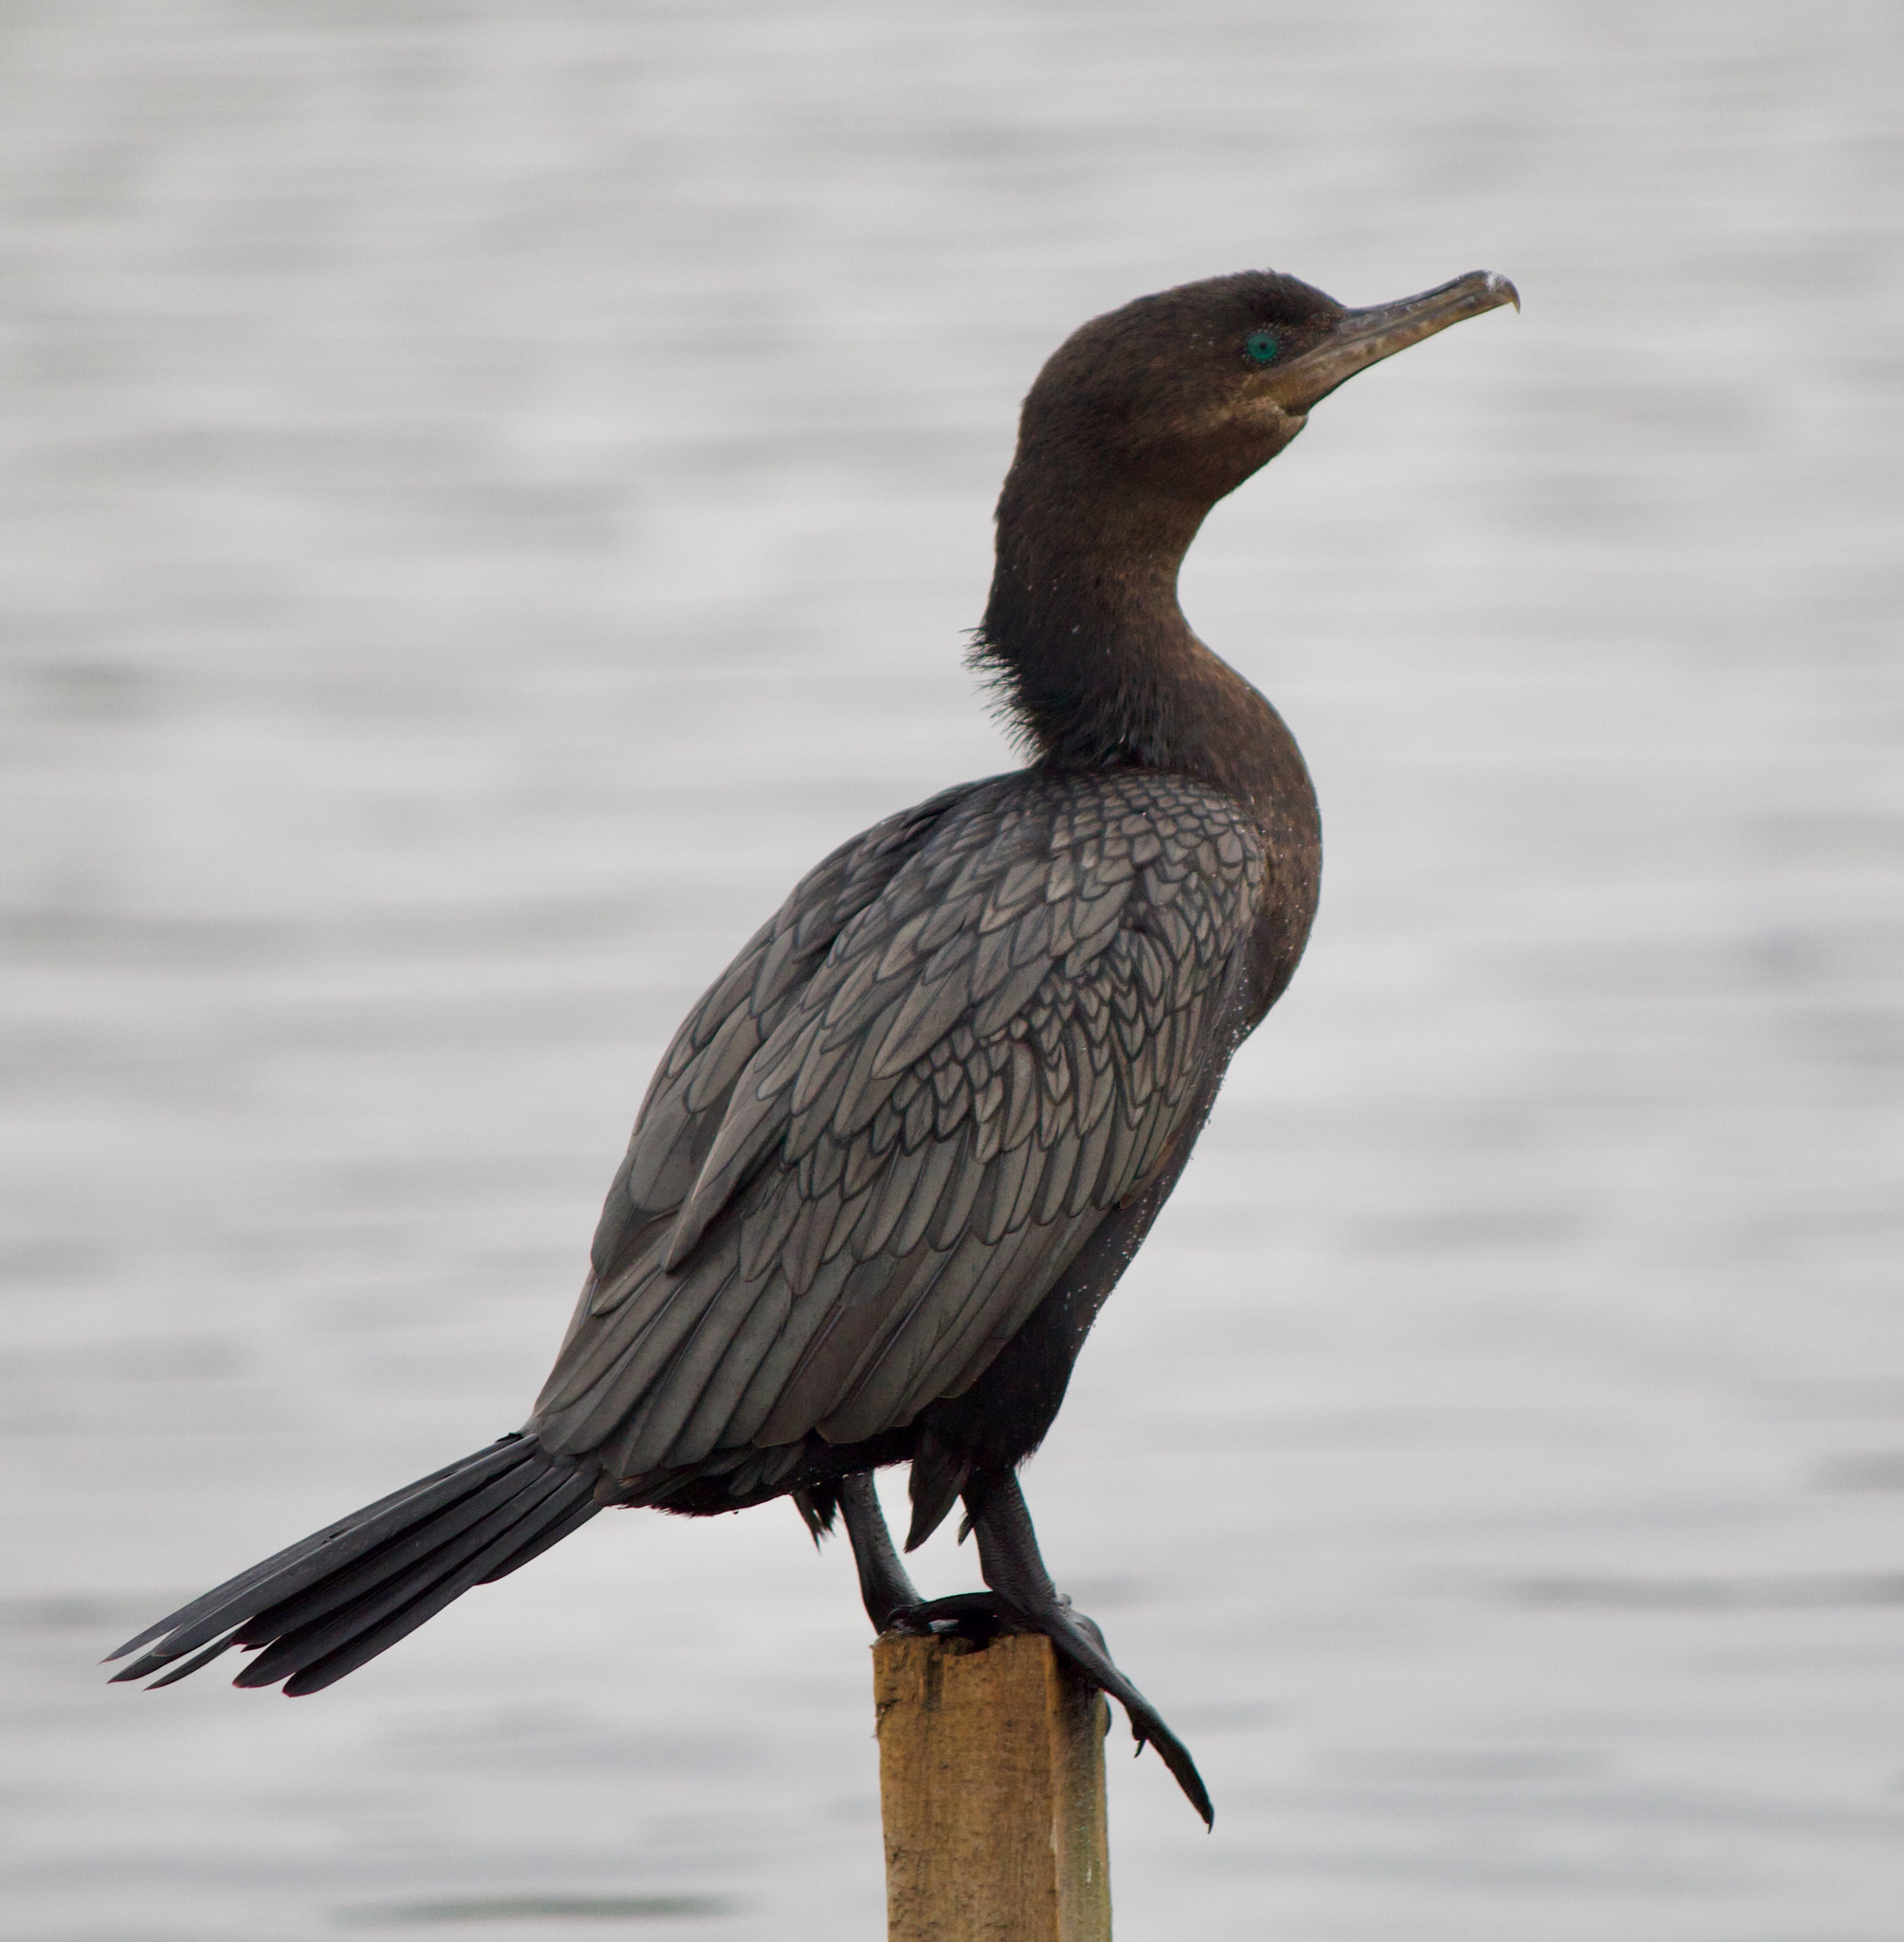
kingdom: Animalia
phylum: Chordata
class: Aves
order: Suliformes
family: Phalacrocoracidae
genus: Phalacrocorax
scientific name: Phalacrocorax brasilianus
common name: Neotropic cormorant
